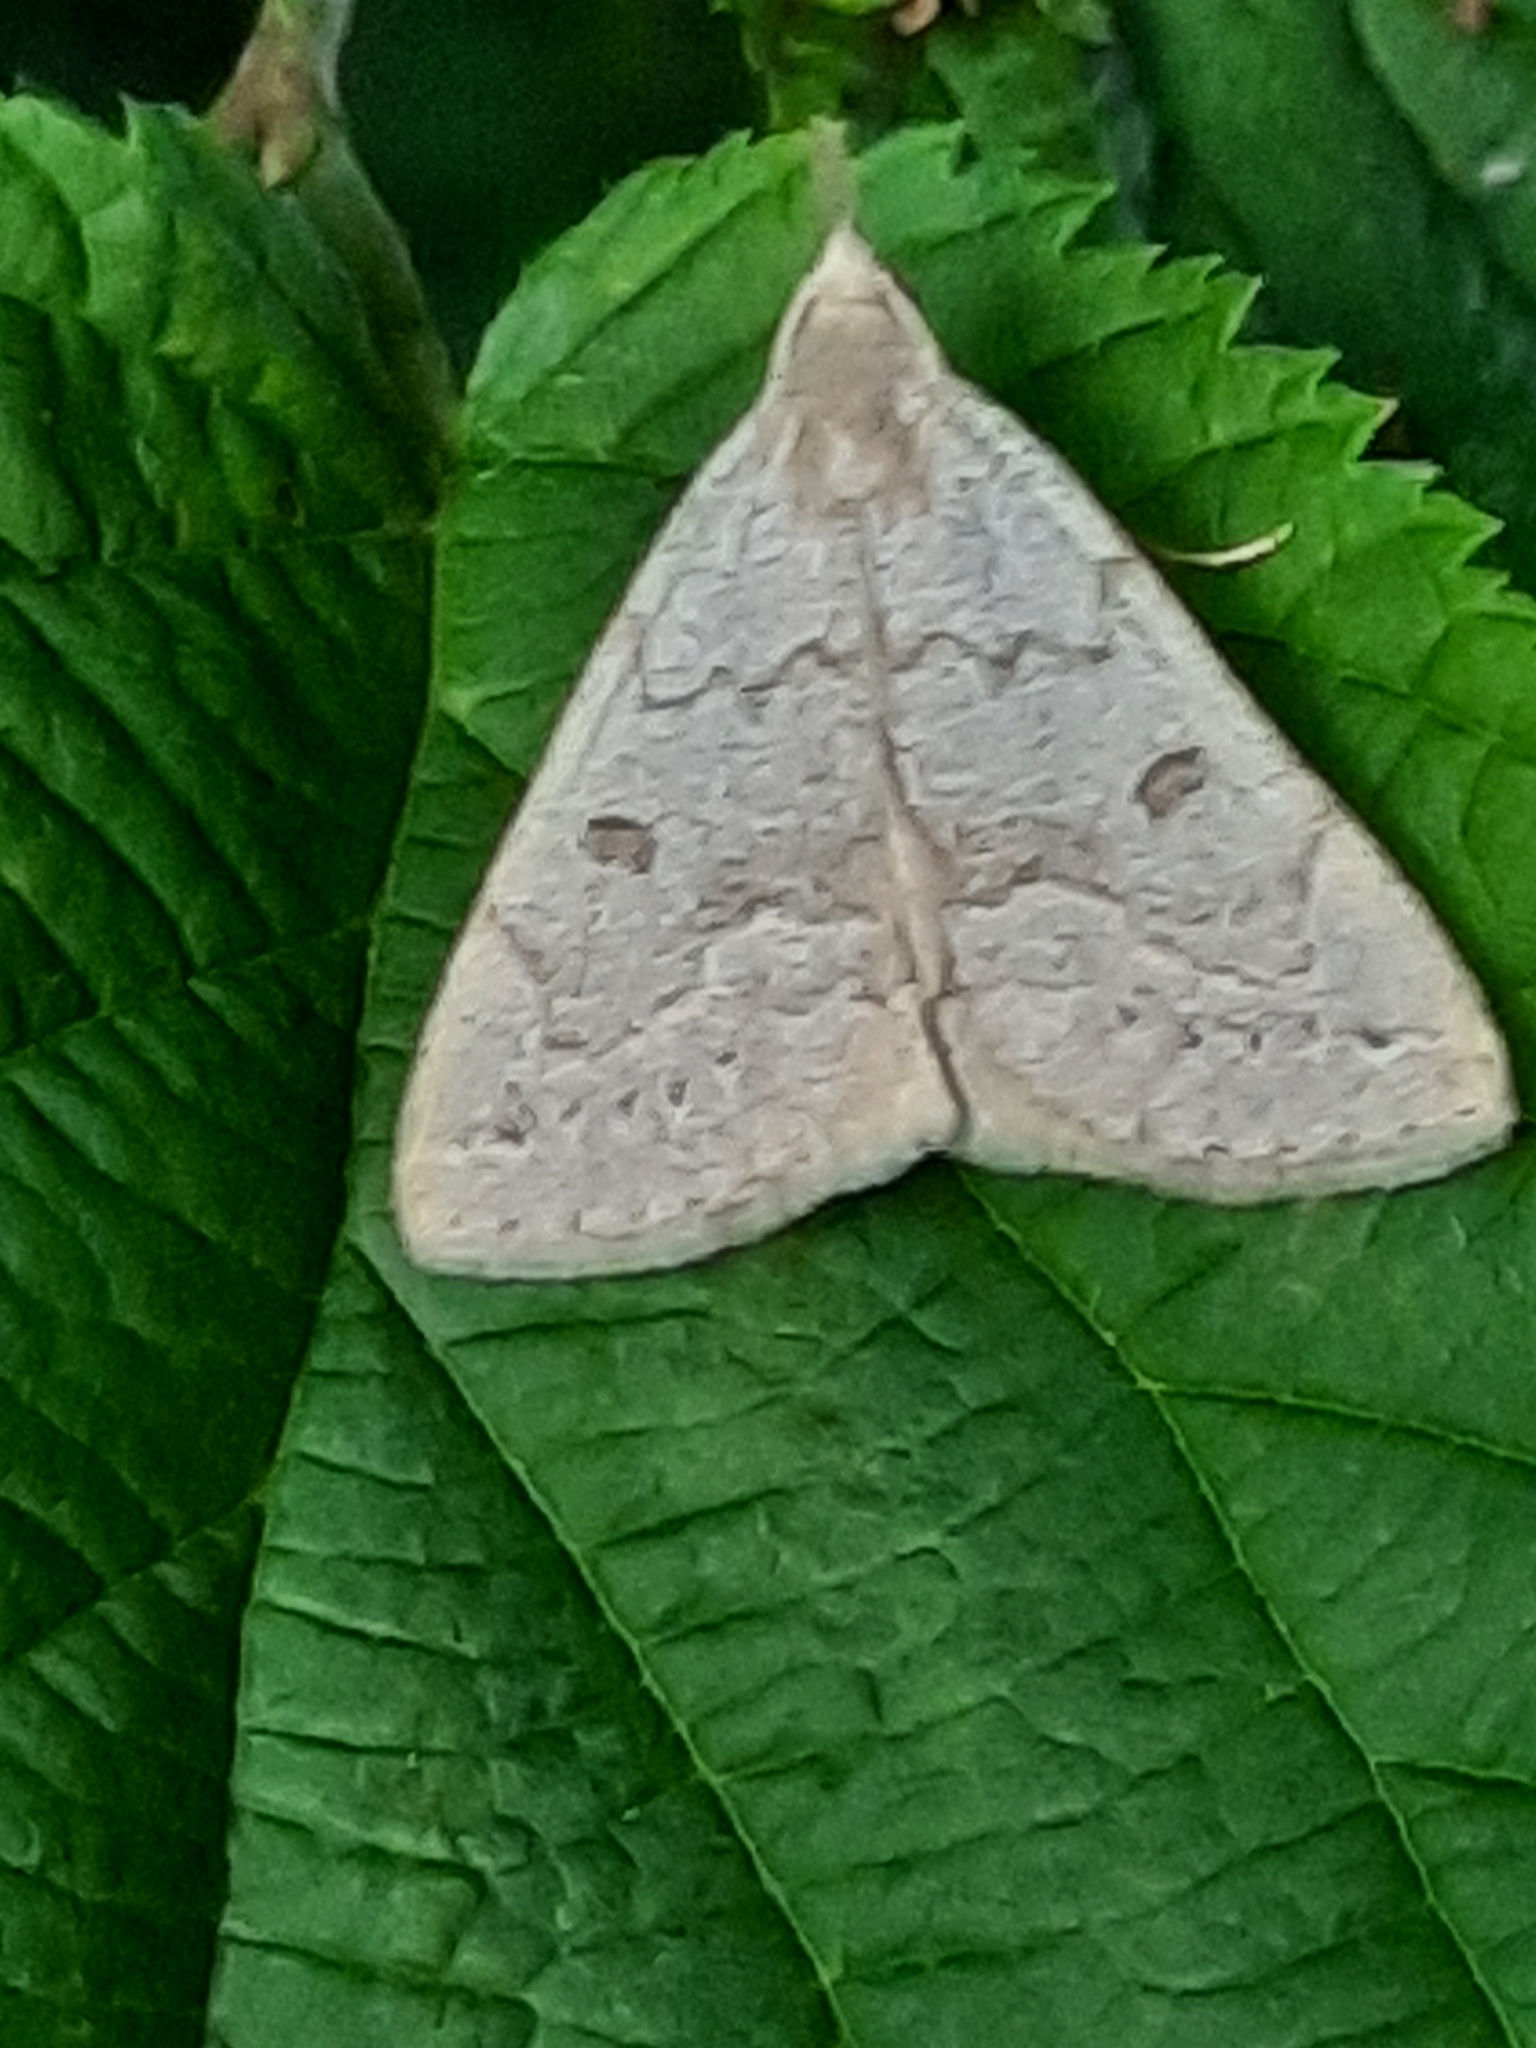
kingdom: Animalia
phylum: Arthropoda
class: Insecta
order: Lepidoptera
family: Erebidae
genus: Macrochilo
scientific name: Macrochilo morbidalis
